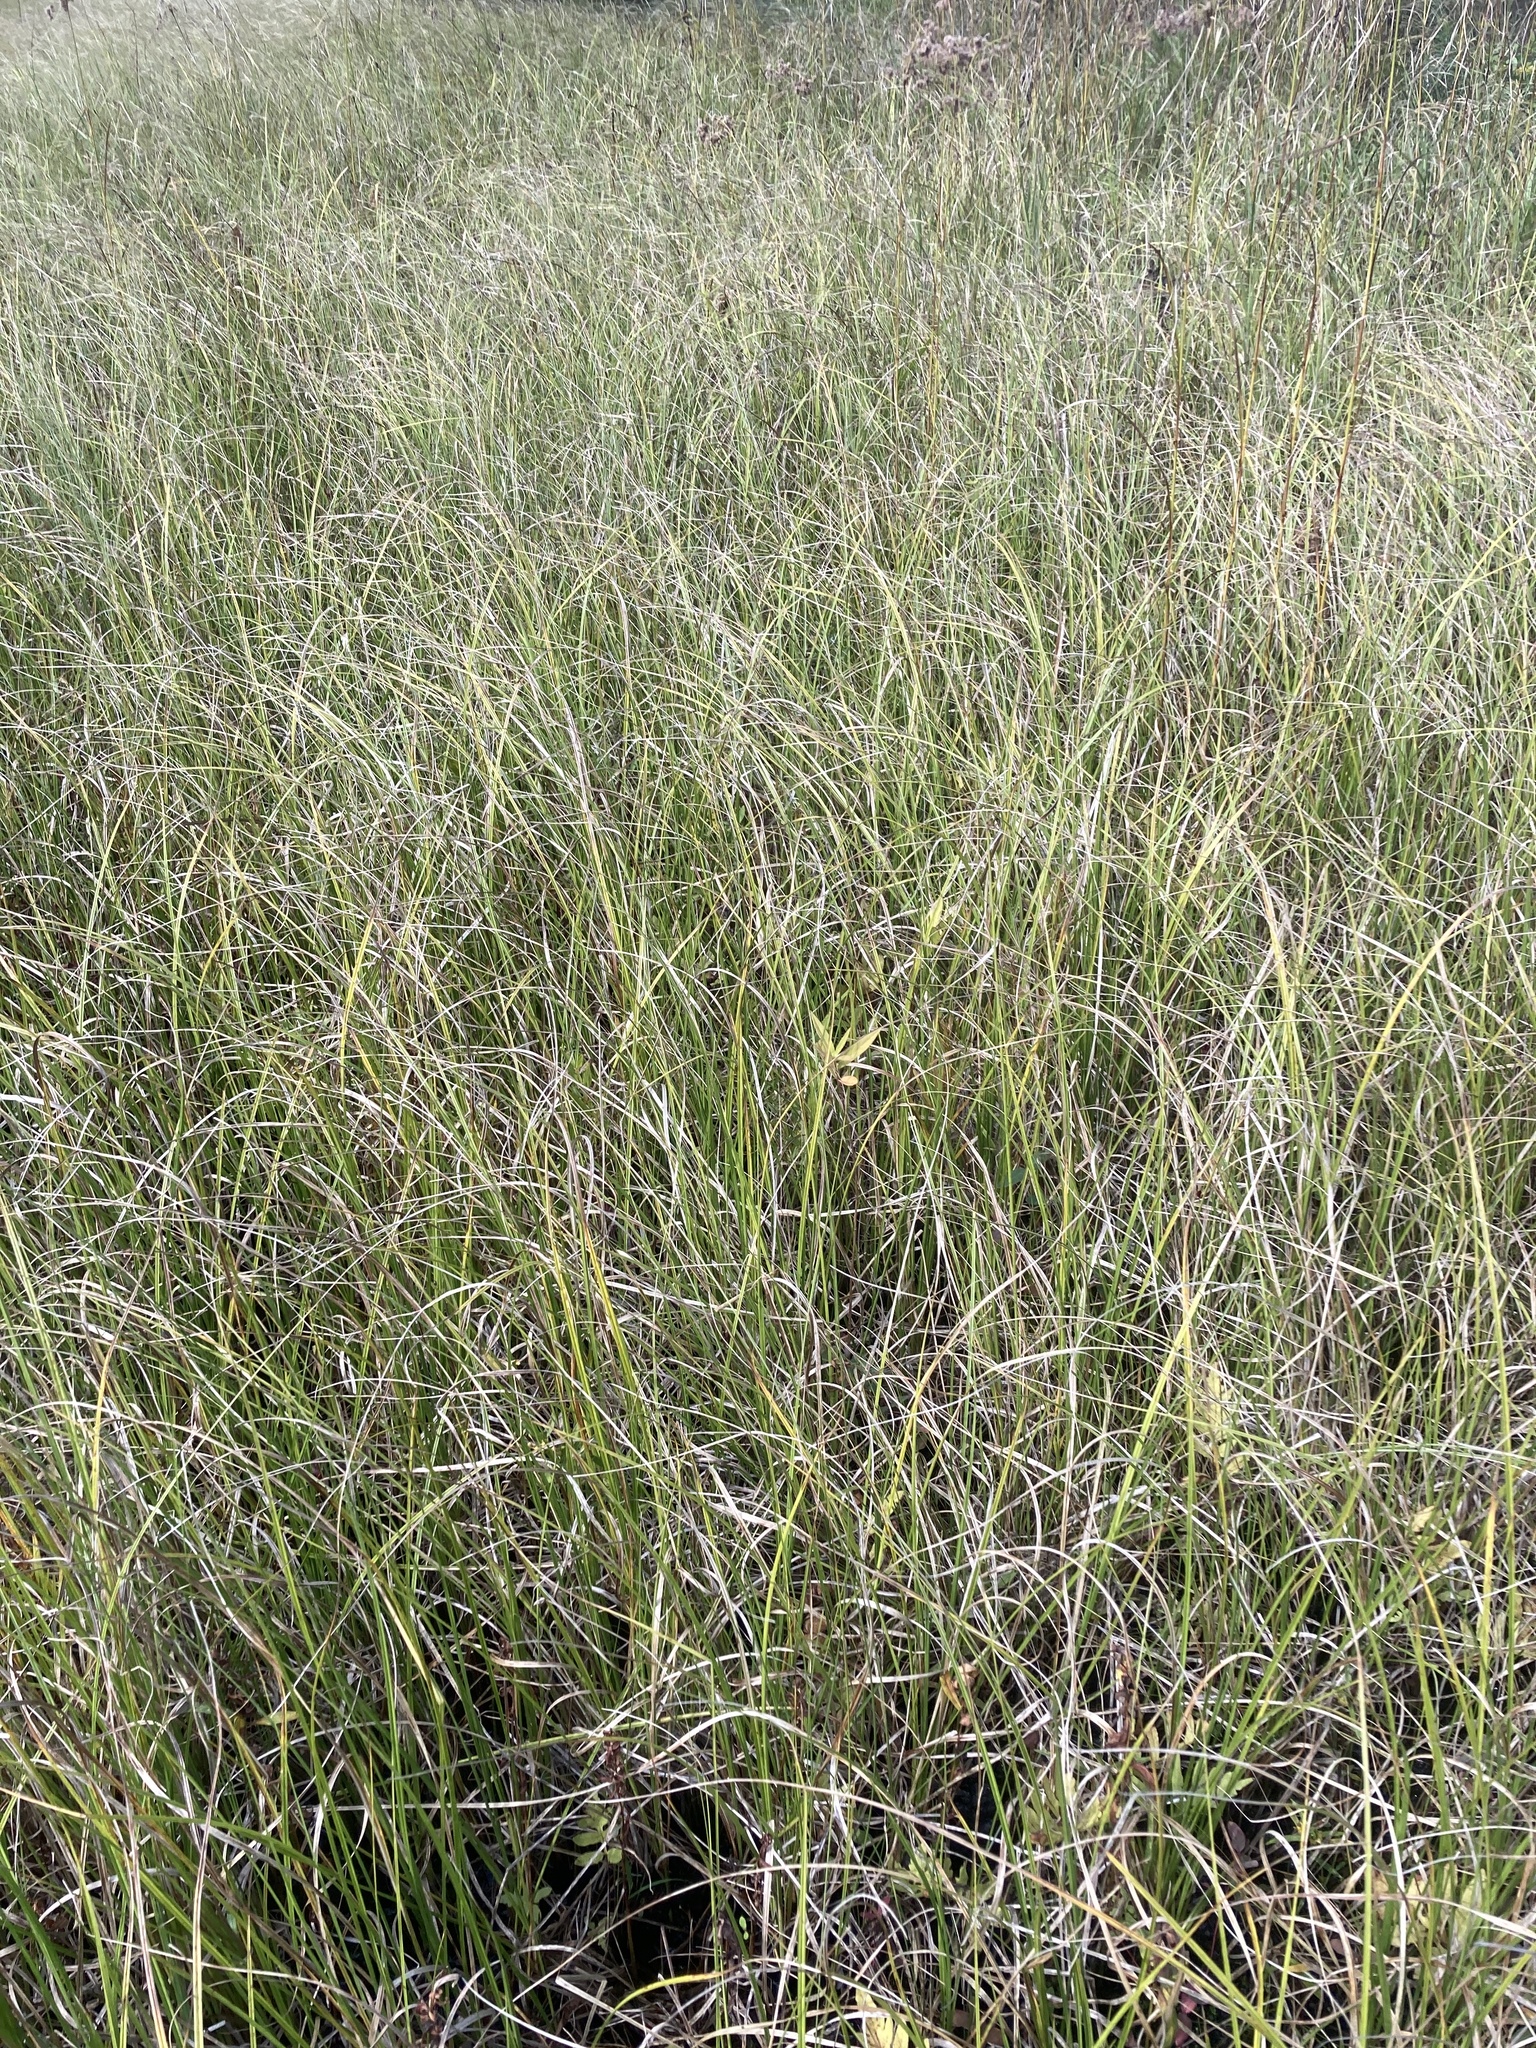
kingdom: Plantae
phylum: Tracheophyta
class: Liliopsida
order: Poales
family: Cyperaceae
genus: Carex
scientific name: Carex
